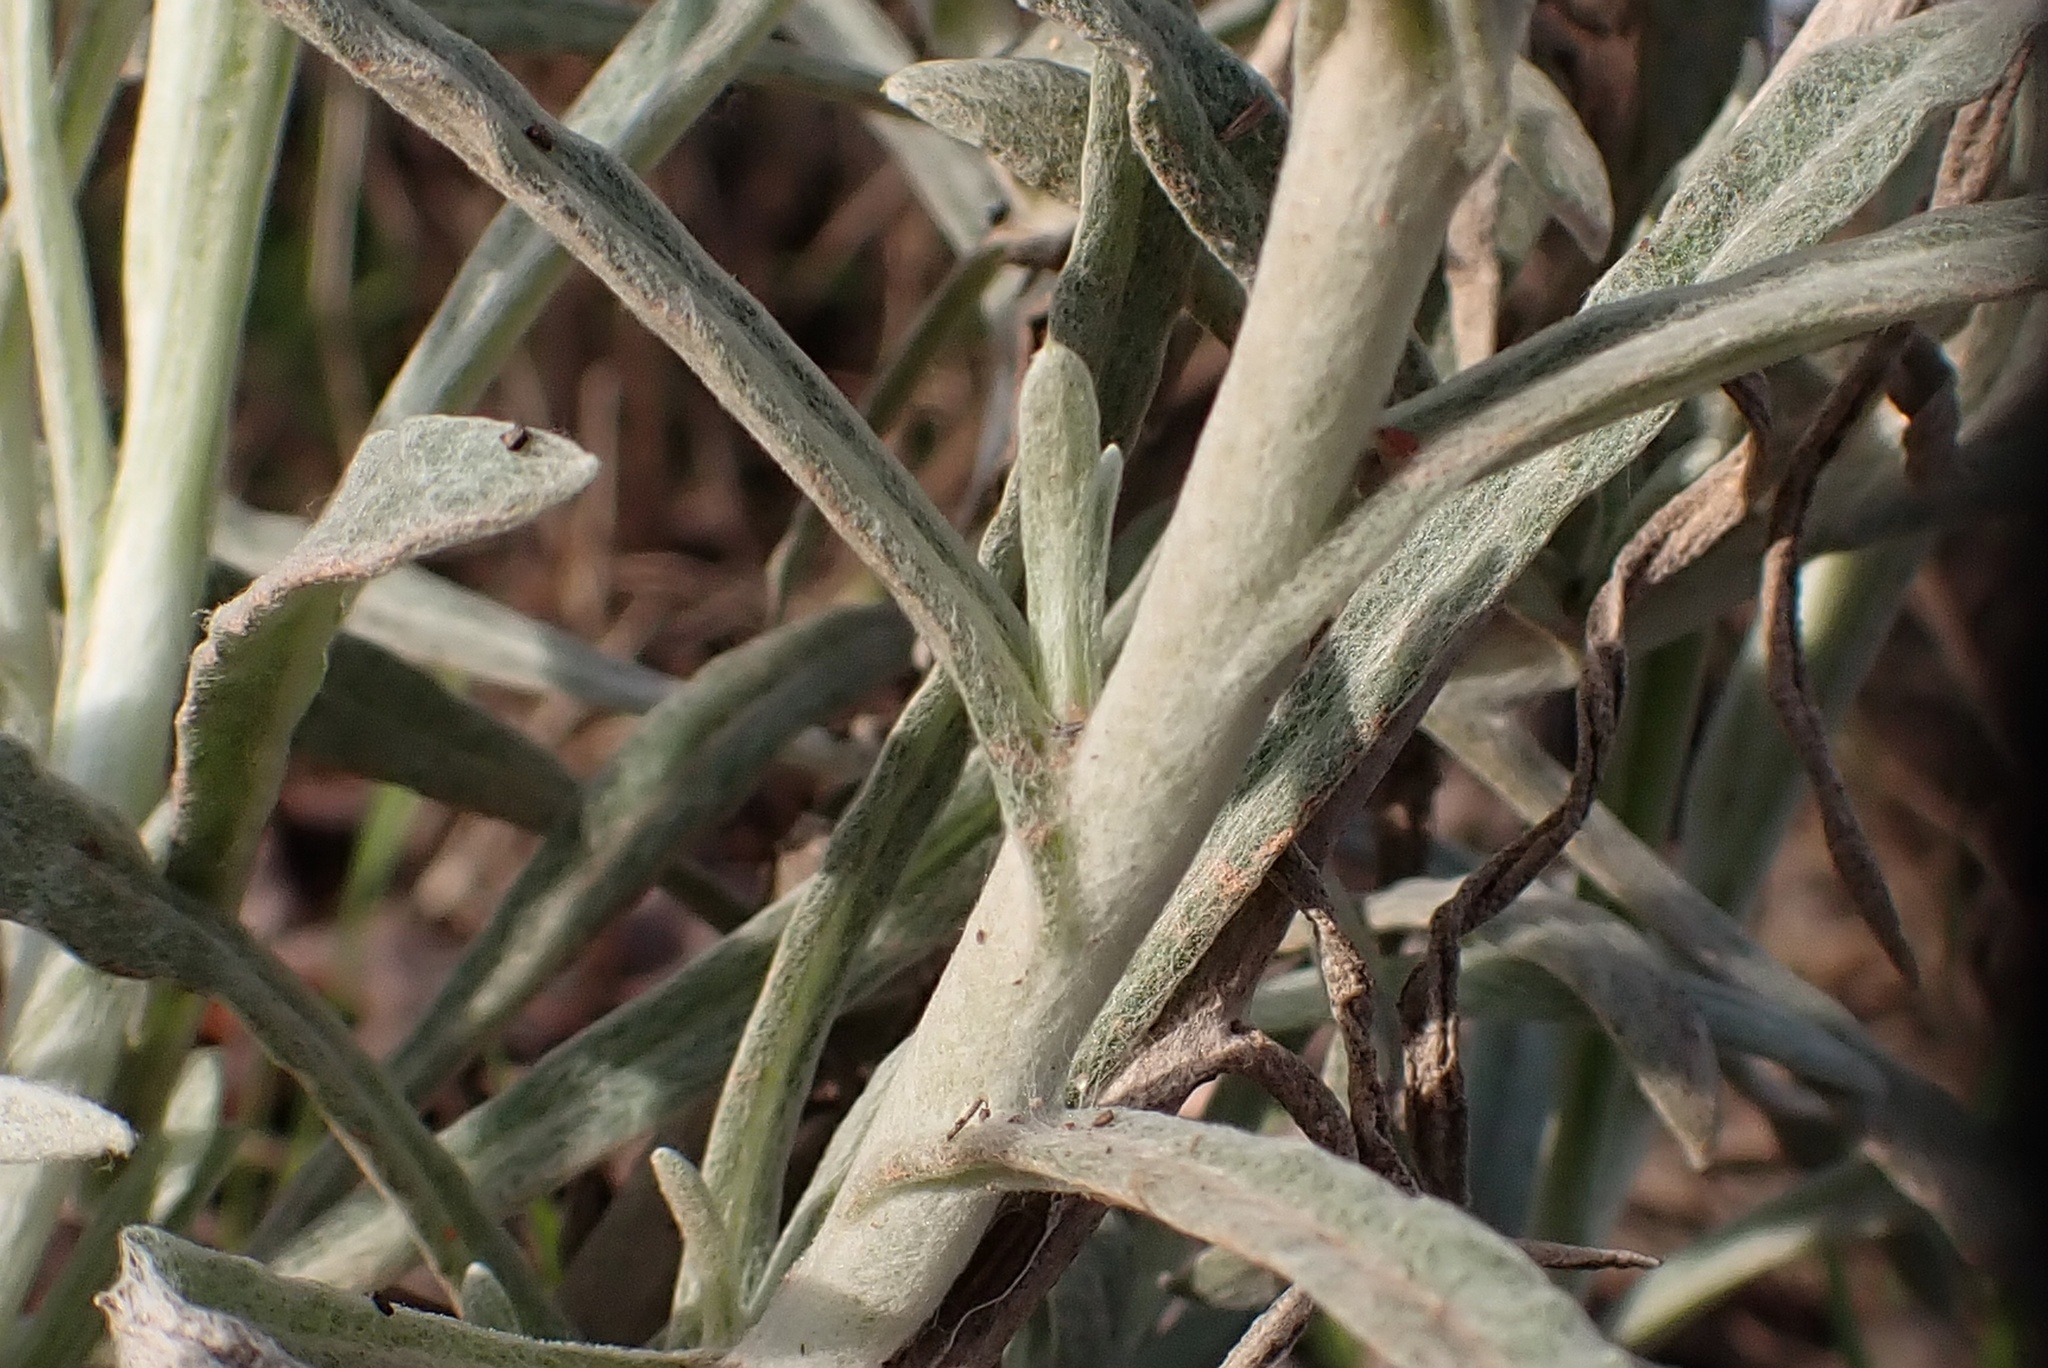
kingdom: Plantae
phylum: Tracheophyta
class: Magnoliopsida
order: Asterales
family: Asteraceae
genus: Pseudognaphalium
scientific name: Pseudognaphalium beneolens
